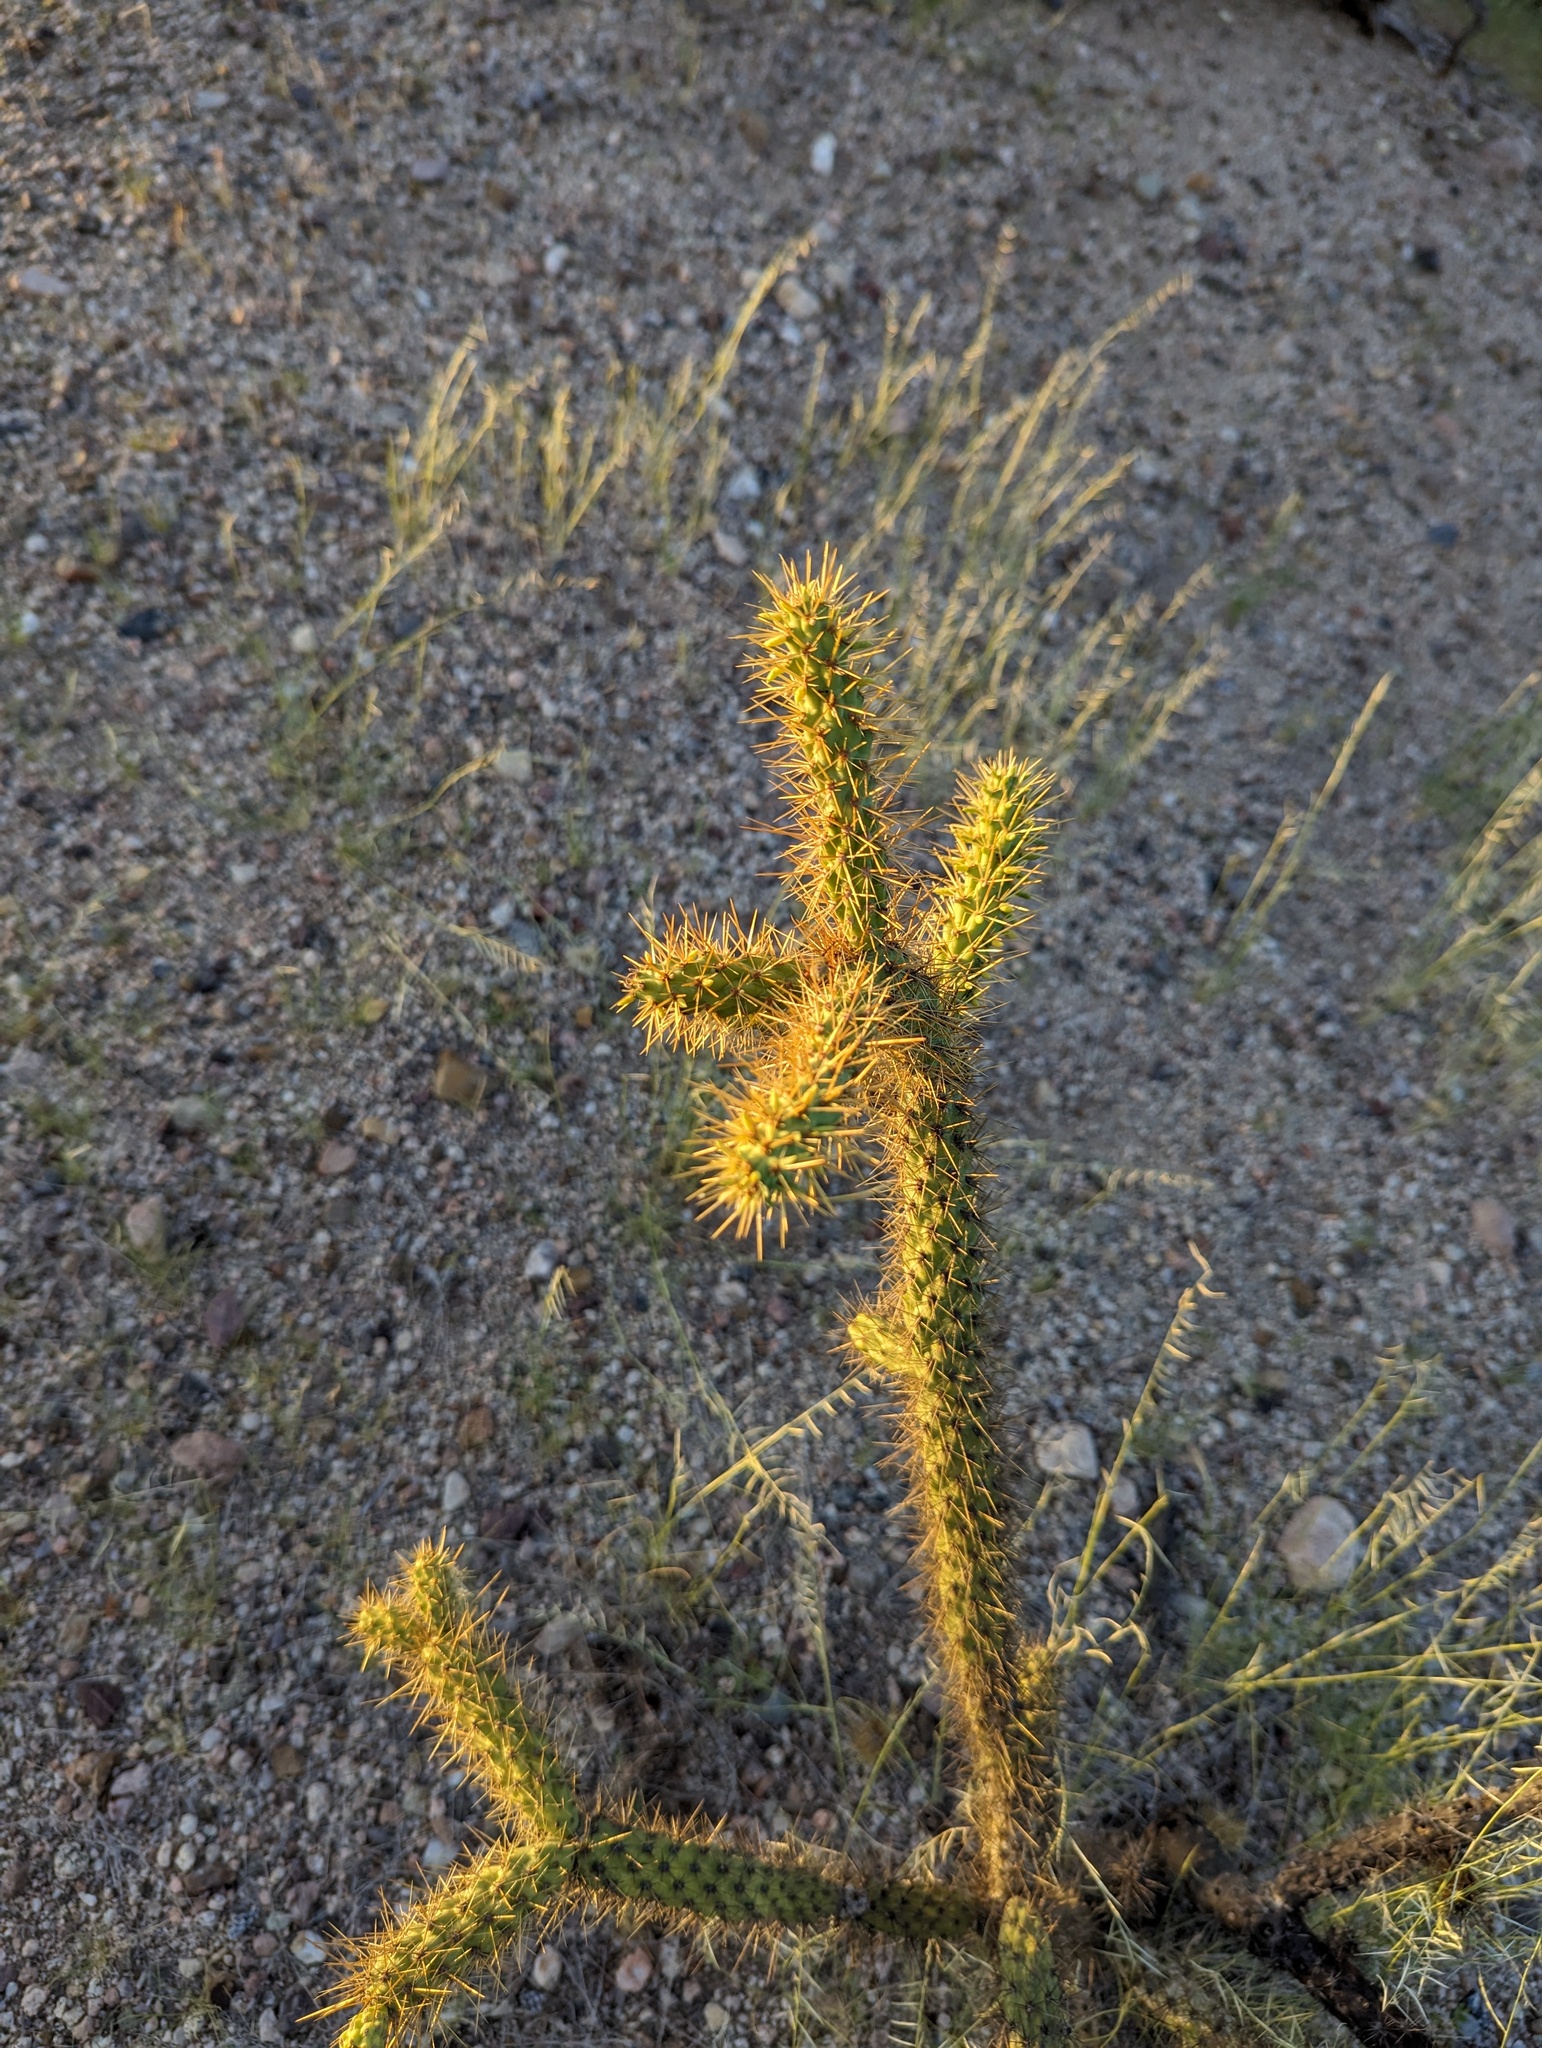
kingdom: Plantae
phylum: Tracheophyta
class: Magnoliopsida
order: Caryophyllales
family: Cactaceae
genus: Cylindropuntia
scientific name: Cylindropuntia alcahes
